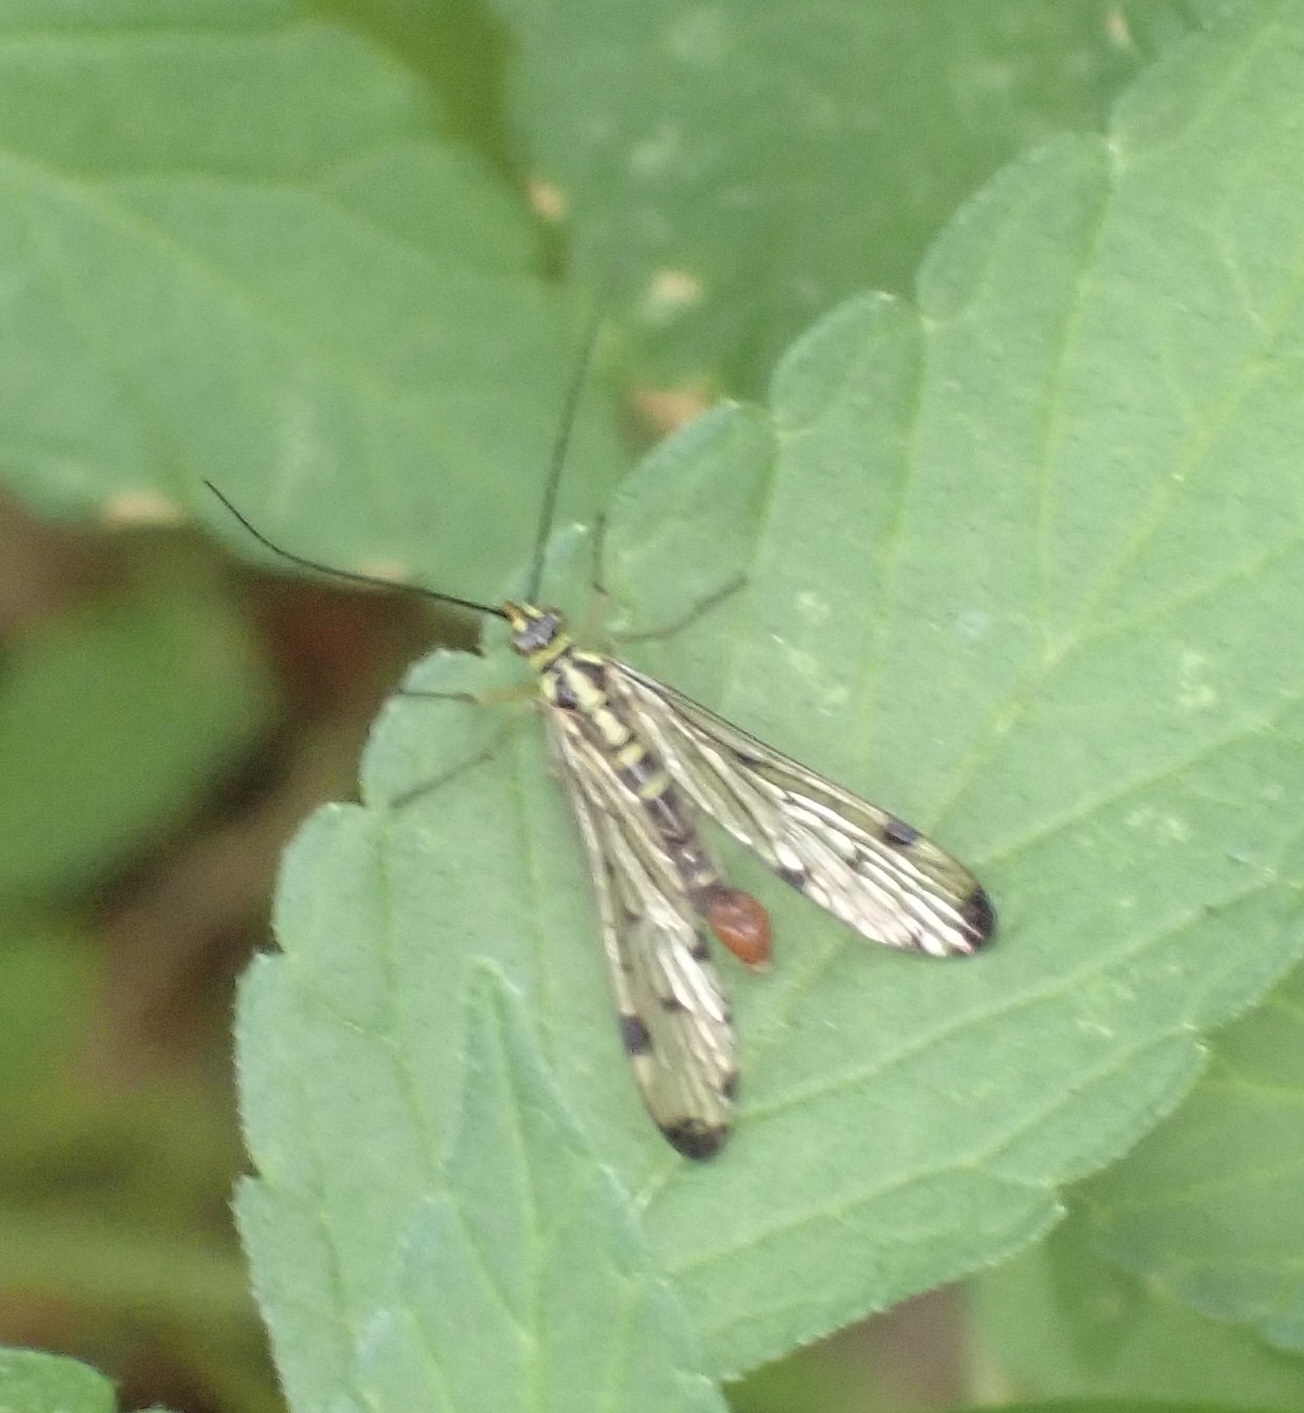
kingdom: Animalia
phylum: Arthropoda
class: Insecta
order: Mecoptera
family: Panorpidae
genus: Panorpa
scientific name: Panorpa germanica
